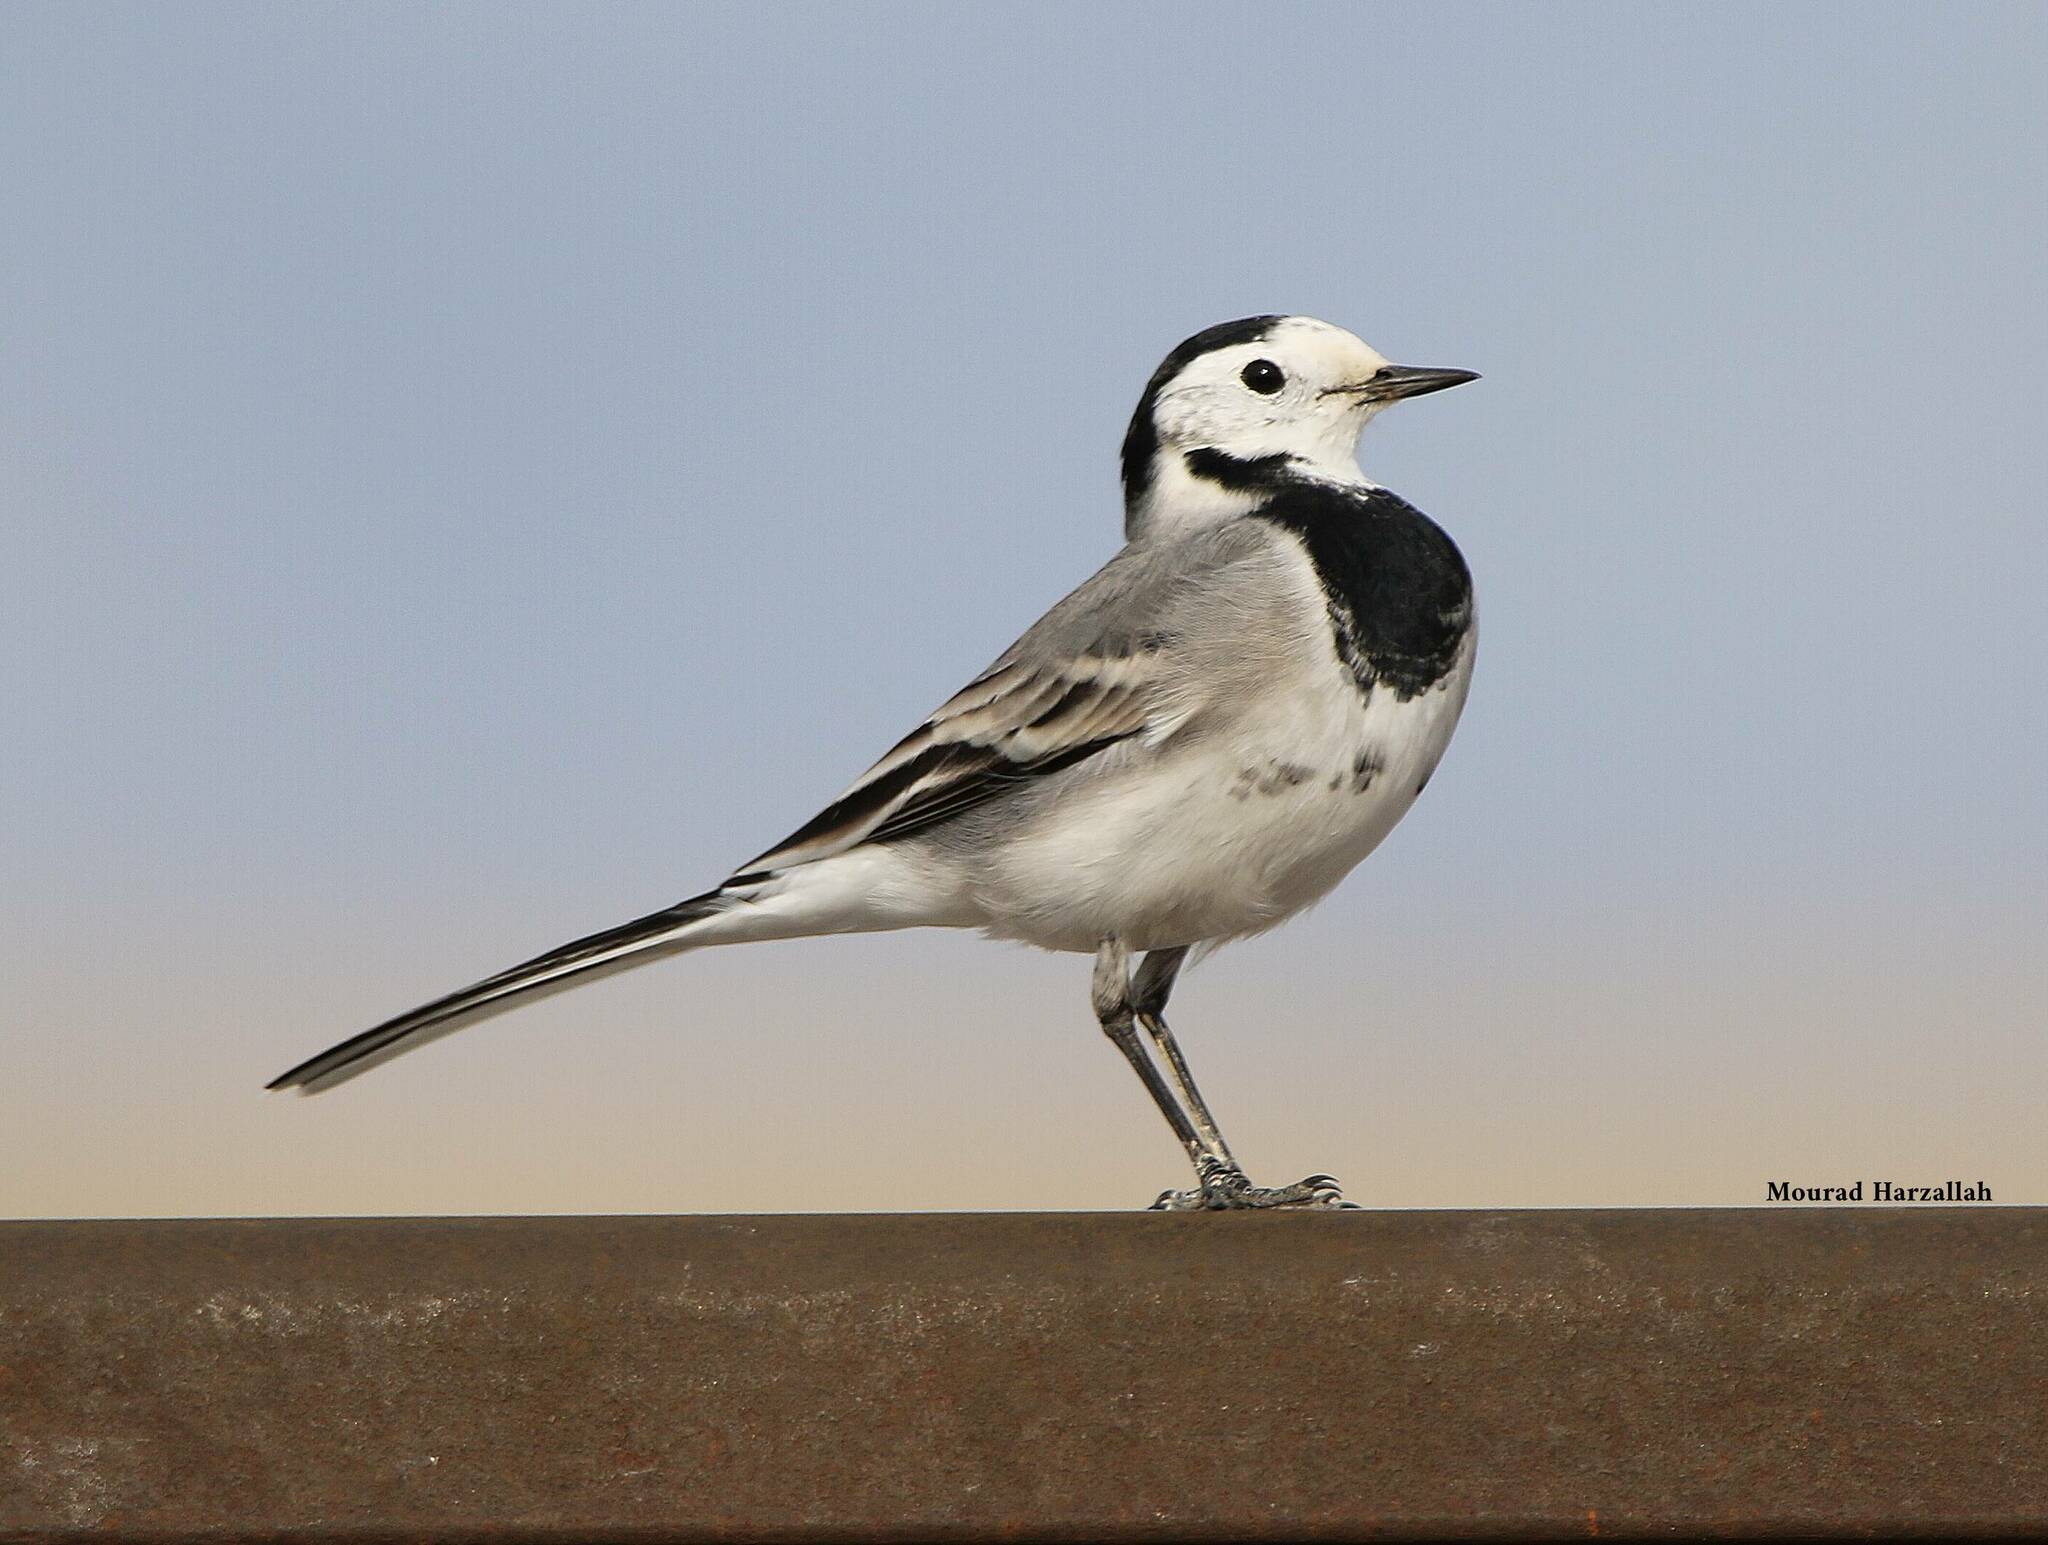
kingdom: Animalia
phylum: Chordata
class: Aves
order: Passeriformes
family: Motacillidae
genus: Motacilla
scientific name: Motacilla alba
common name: White wagtail
